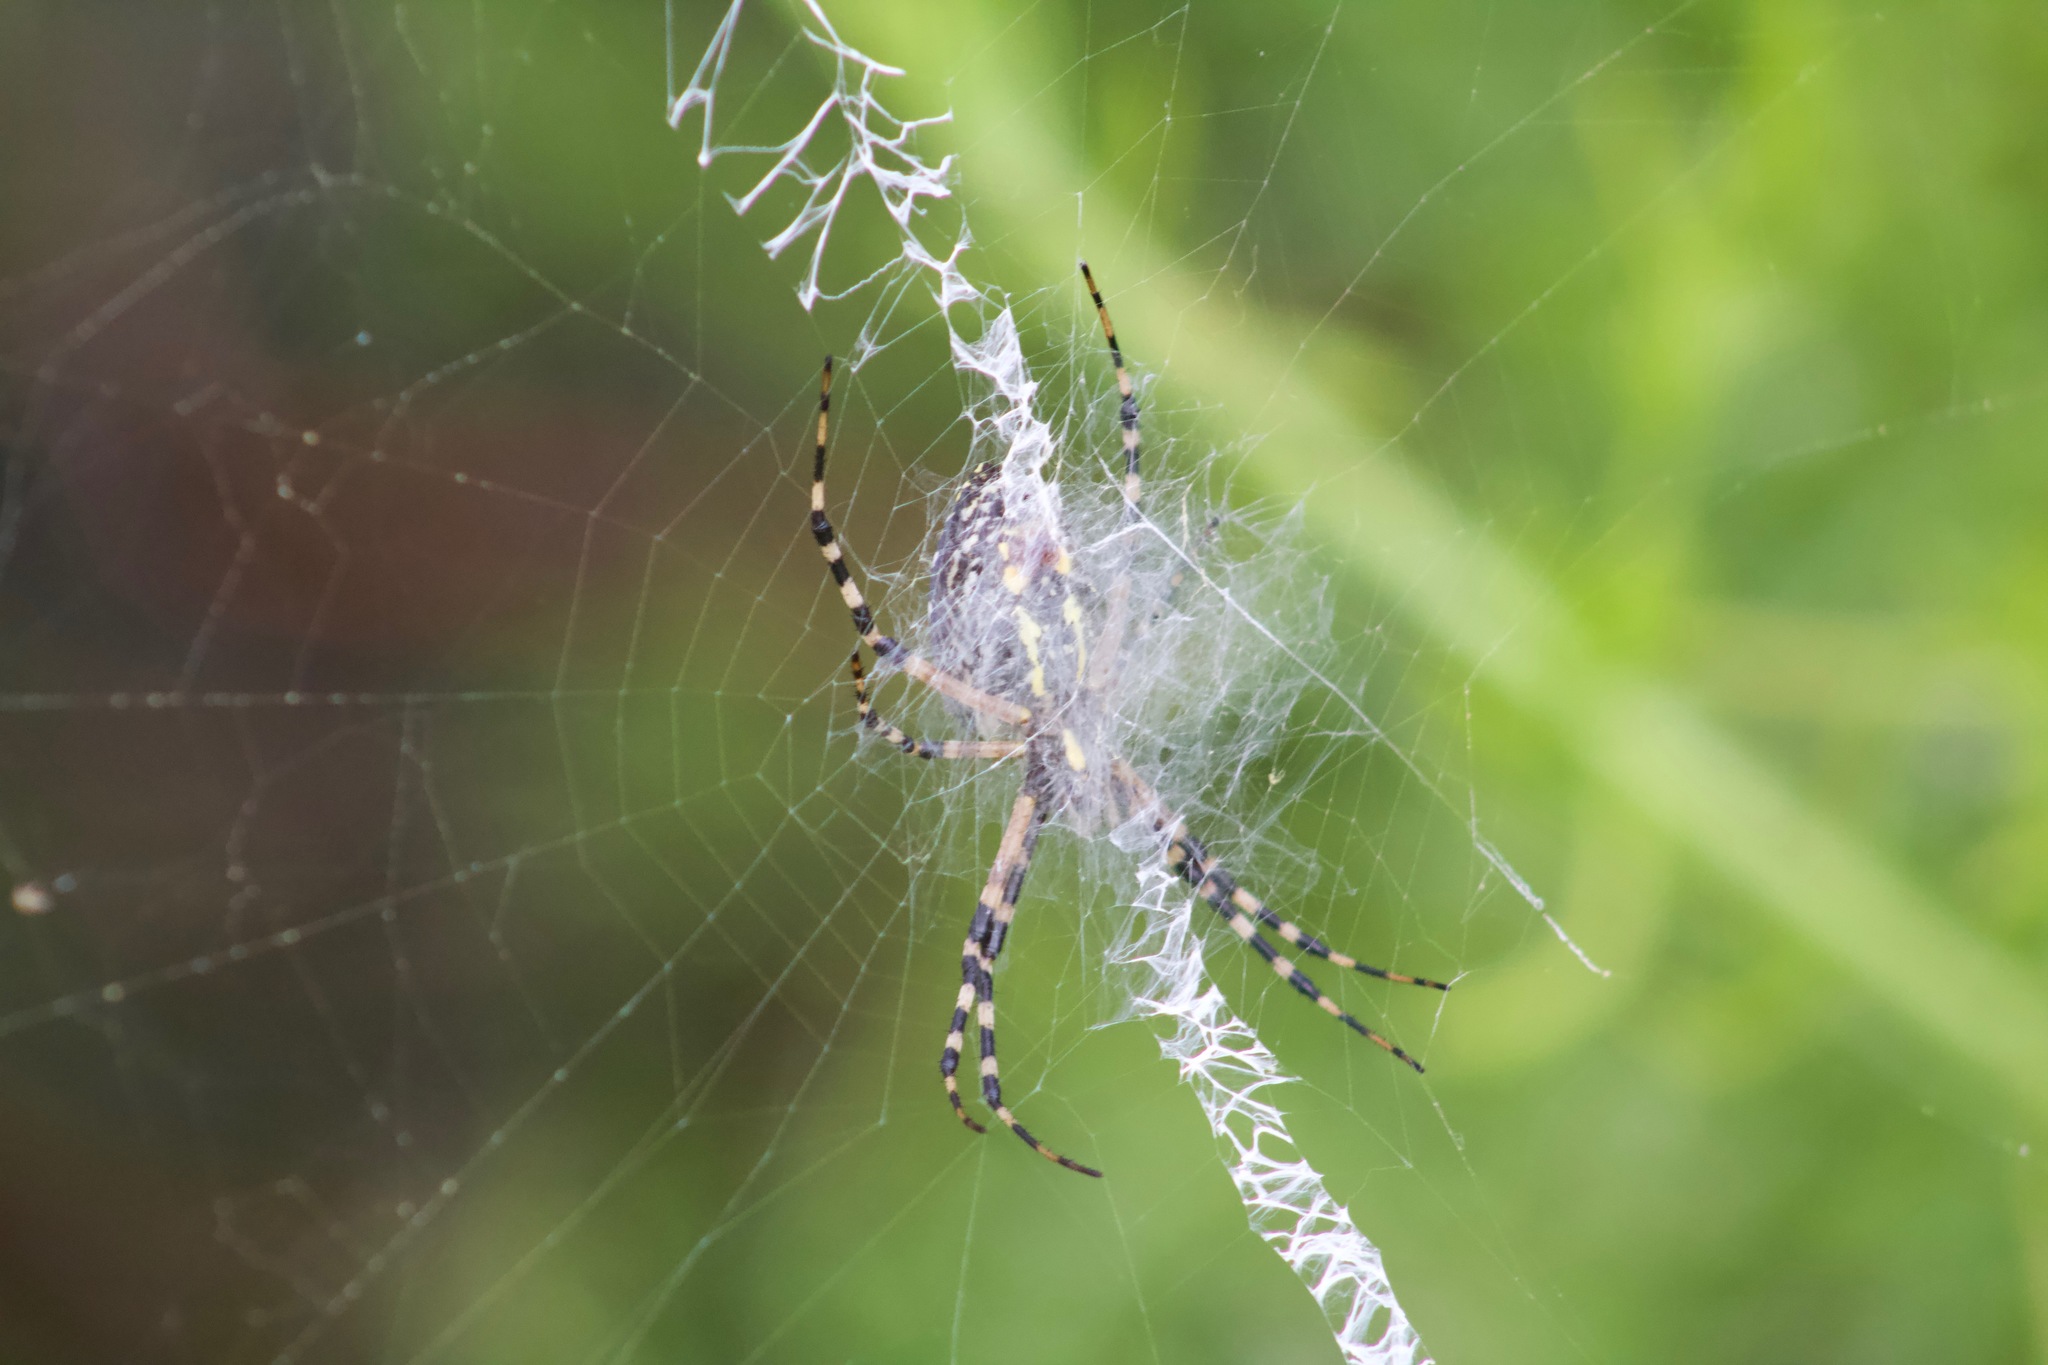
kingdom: Animalia
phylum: Arthropoda
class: Arachnida
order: Araneae
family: Araneidae
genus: Argiope
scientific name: Argiope aurantia
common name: Orb weavers
